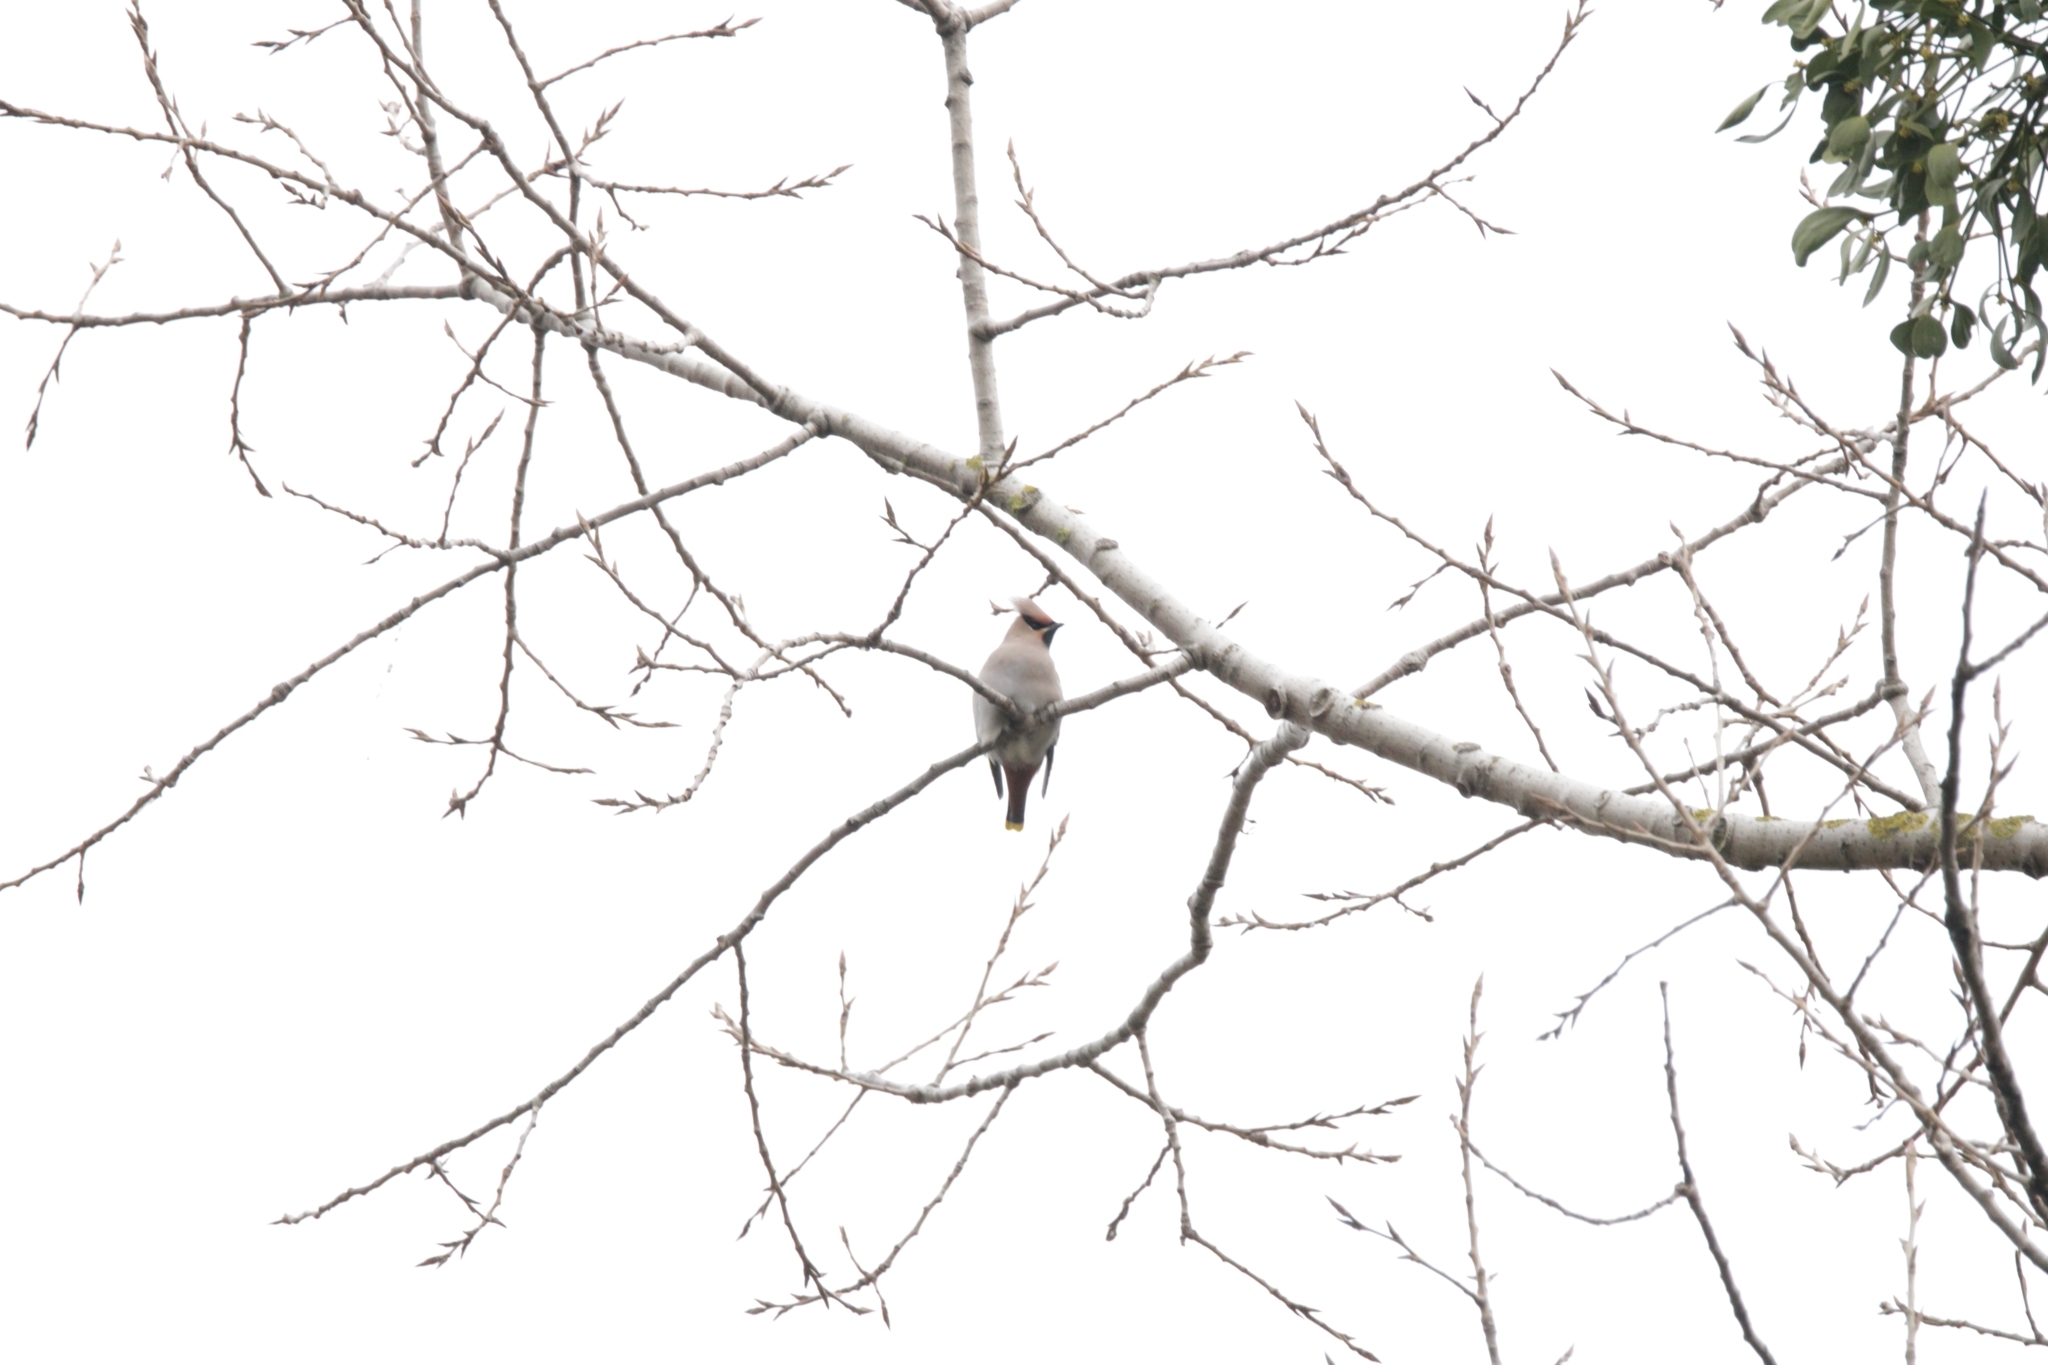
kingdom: Animalia
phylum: Chordata
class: Aves
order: Passeriformes
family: Bombycillidae
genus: Bombycilla
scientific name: Bombycilla garrulus
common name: Bohemian waxwing
